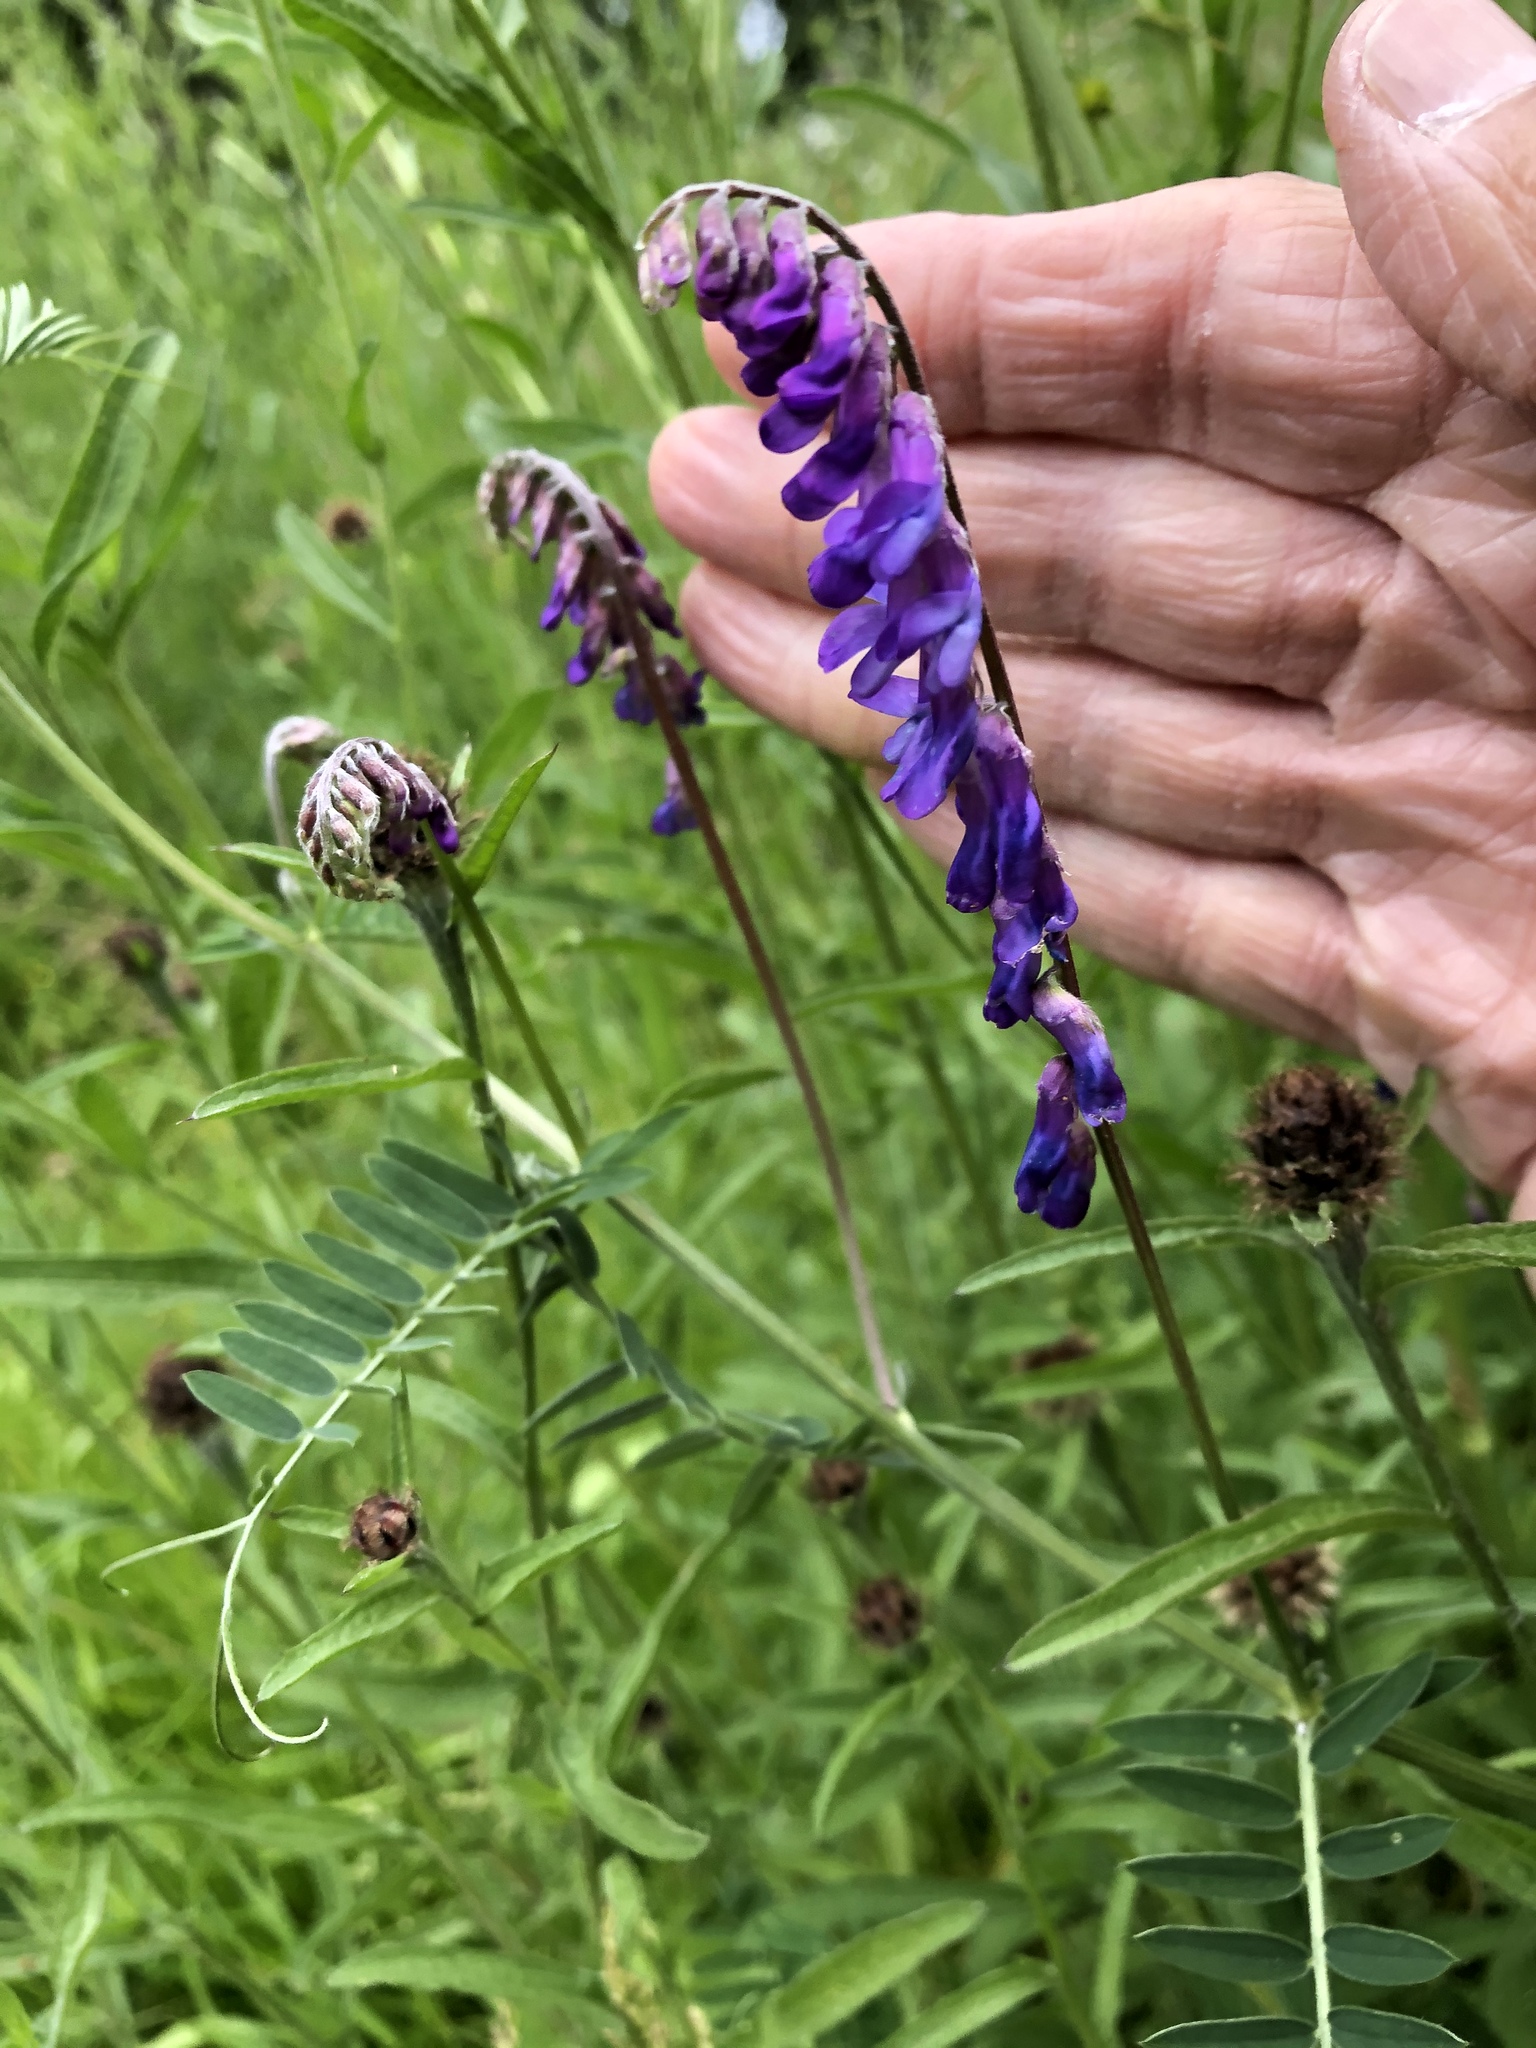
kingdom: Plantae
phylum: Tracheophyta
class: Magnoliopsida
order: Fabales
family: Fabaceae
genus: Vicia
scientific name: Vicia cracca
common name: Bird vetch
